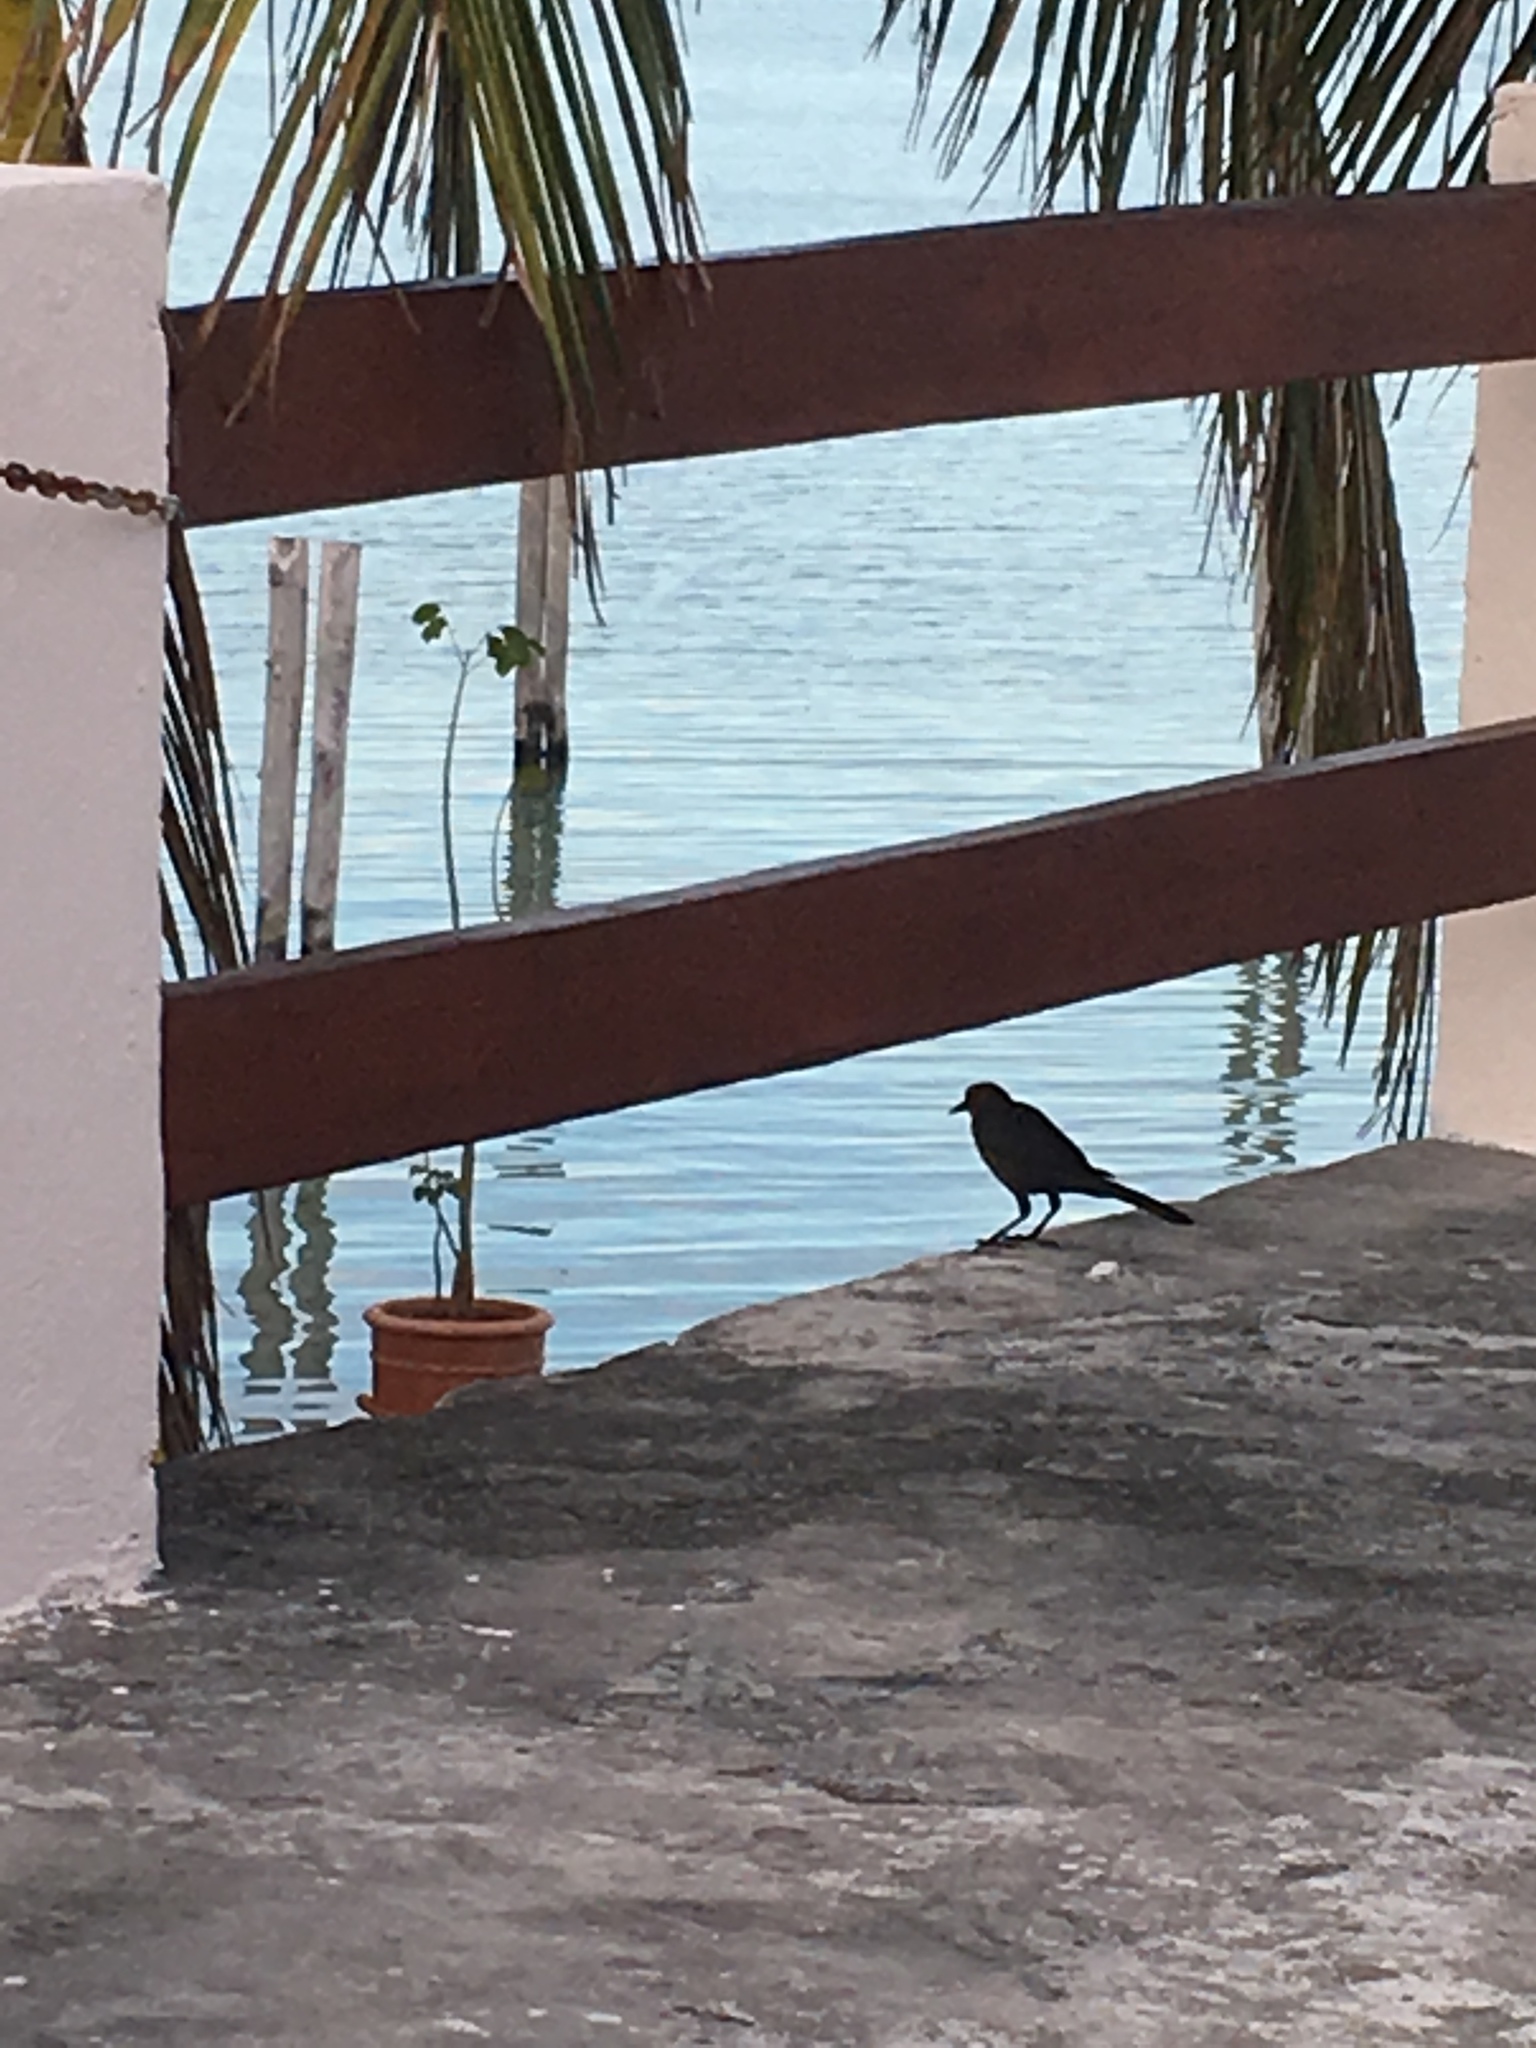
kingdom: Animalia
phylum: Chordata
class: Aves
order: Passeriformes
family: Icteridae
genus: Quiscalus
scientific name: Quiscalus mexicanus
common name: Great-tailed grackle
